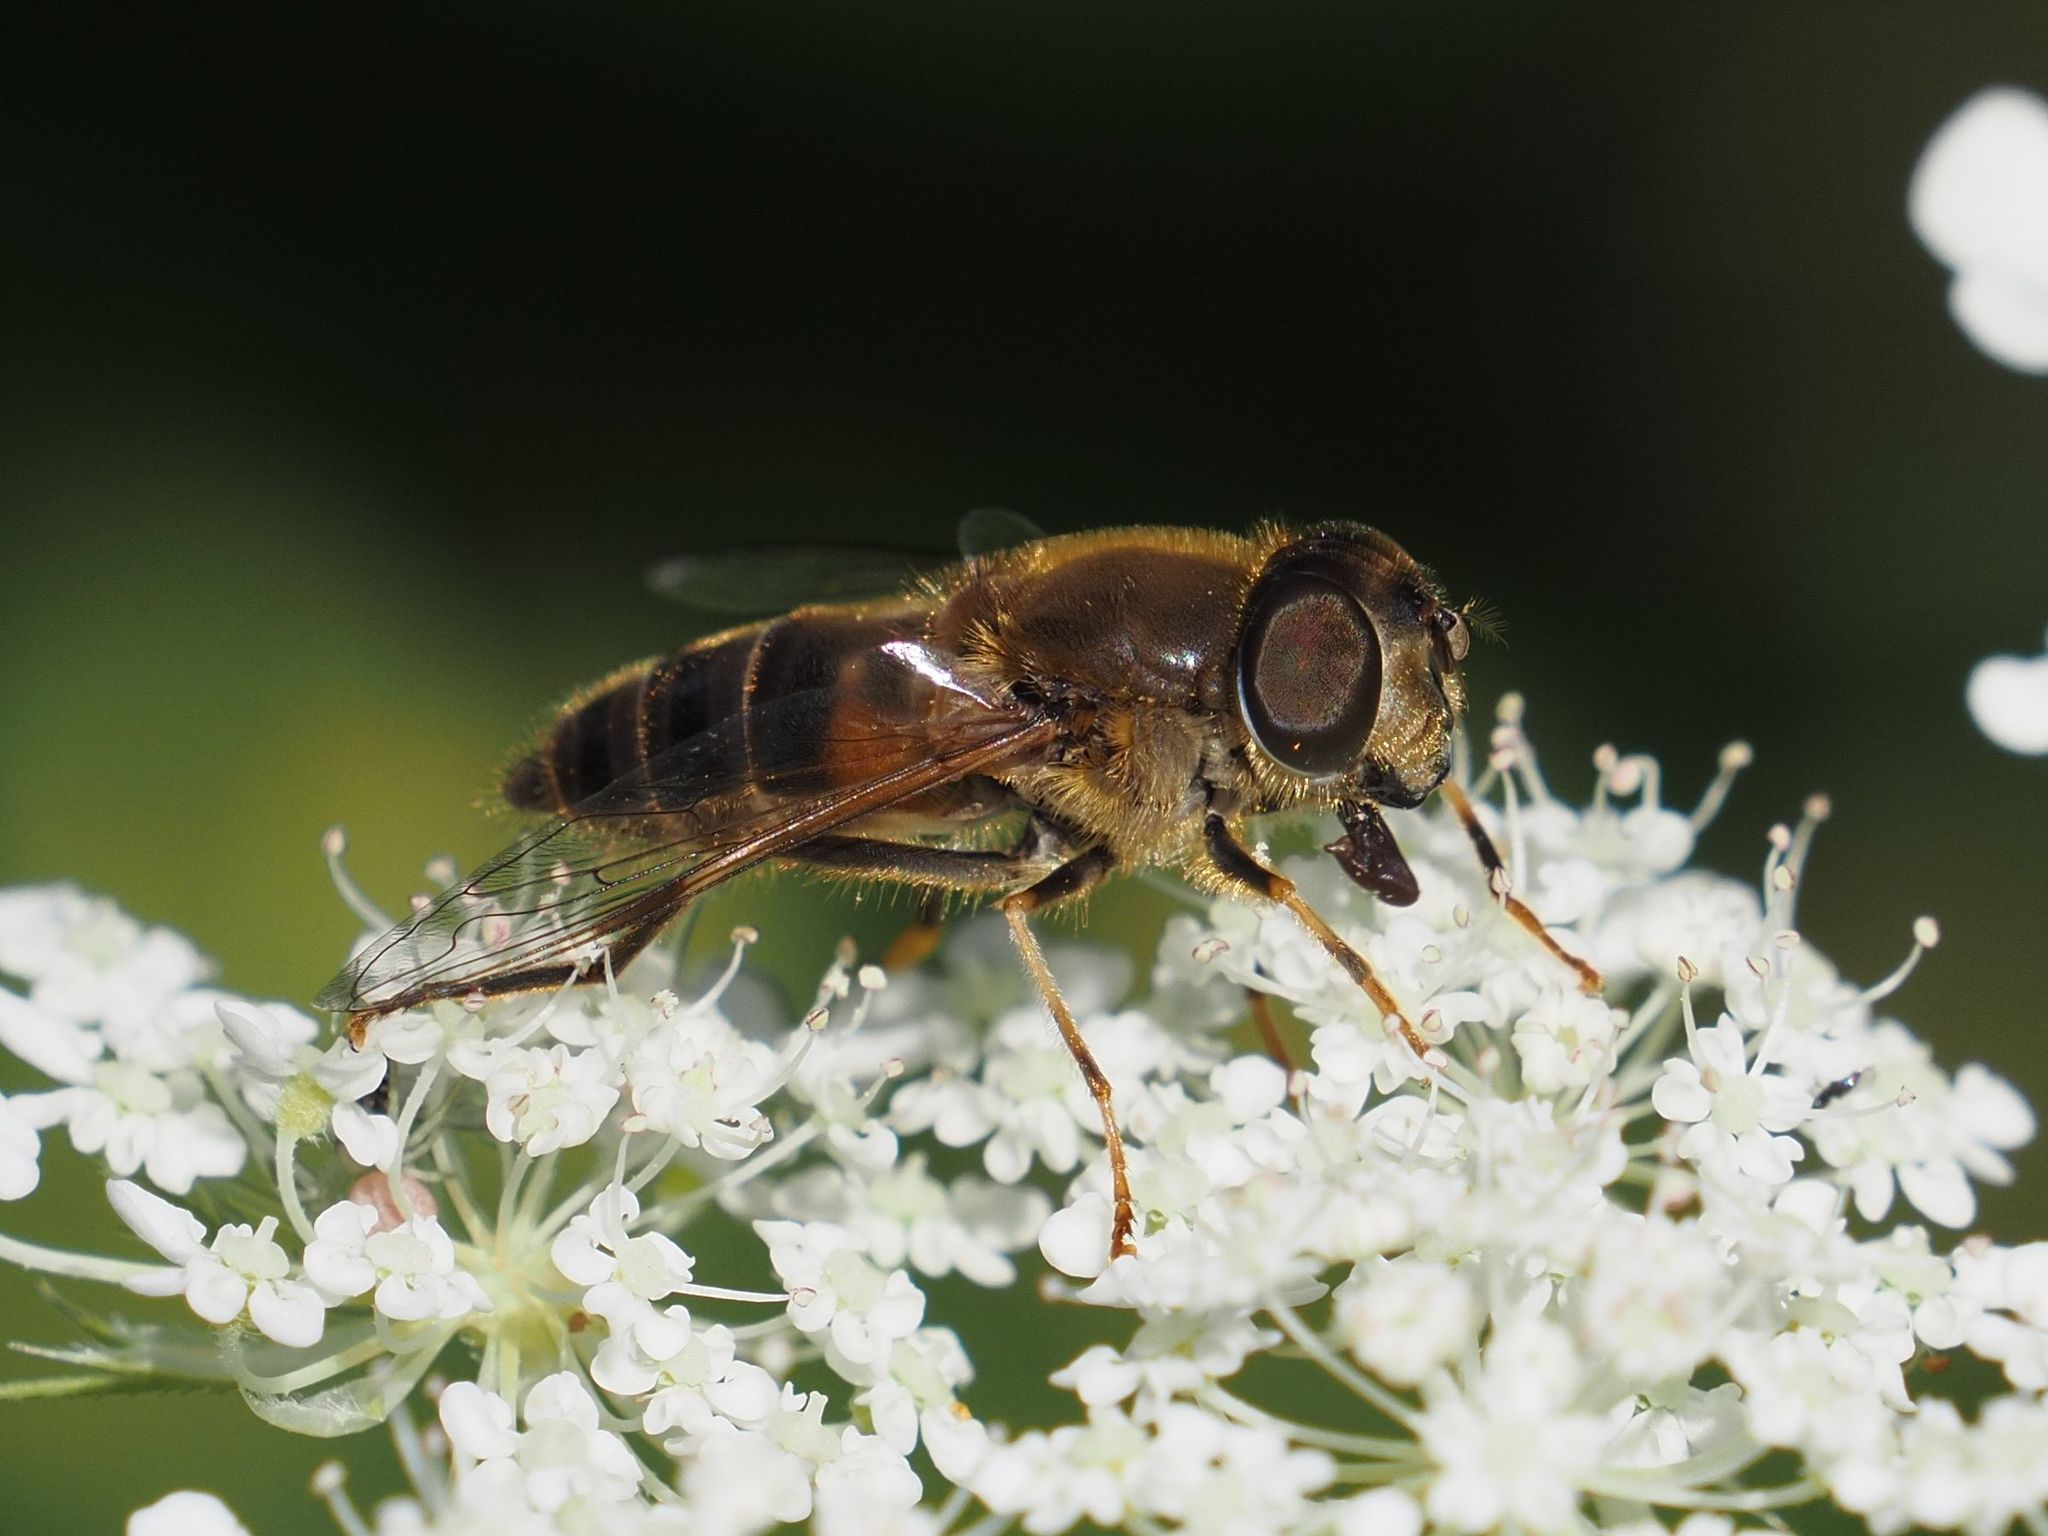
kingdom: Animalia
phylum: Arthropoda
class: Insecta
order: Diptera
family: Syrphidae
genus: Eristalis
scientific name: Eristalis pertinax
